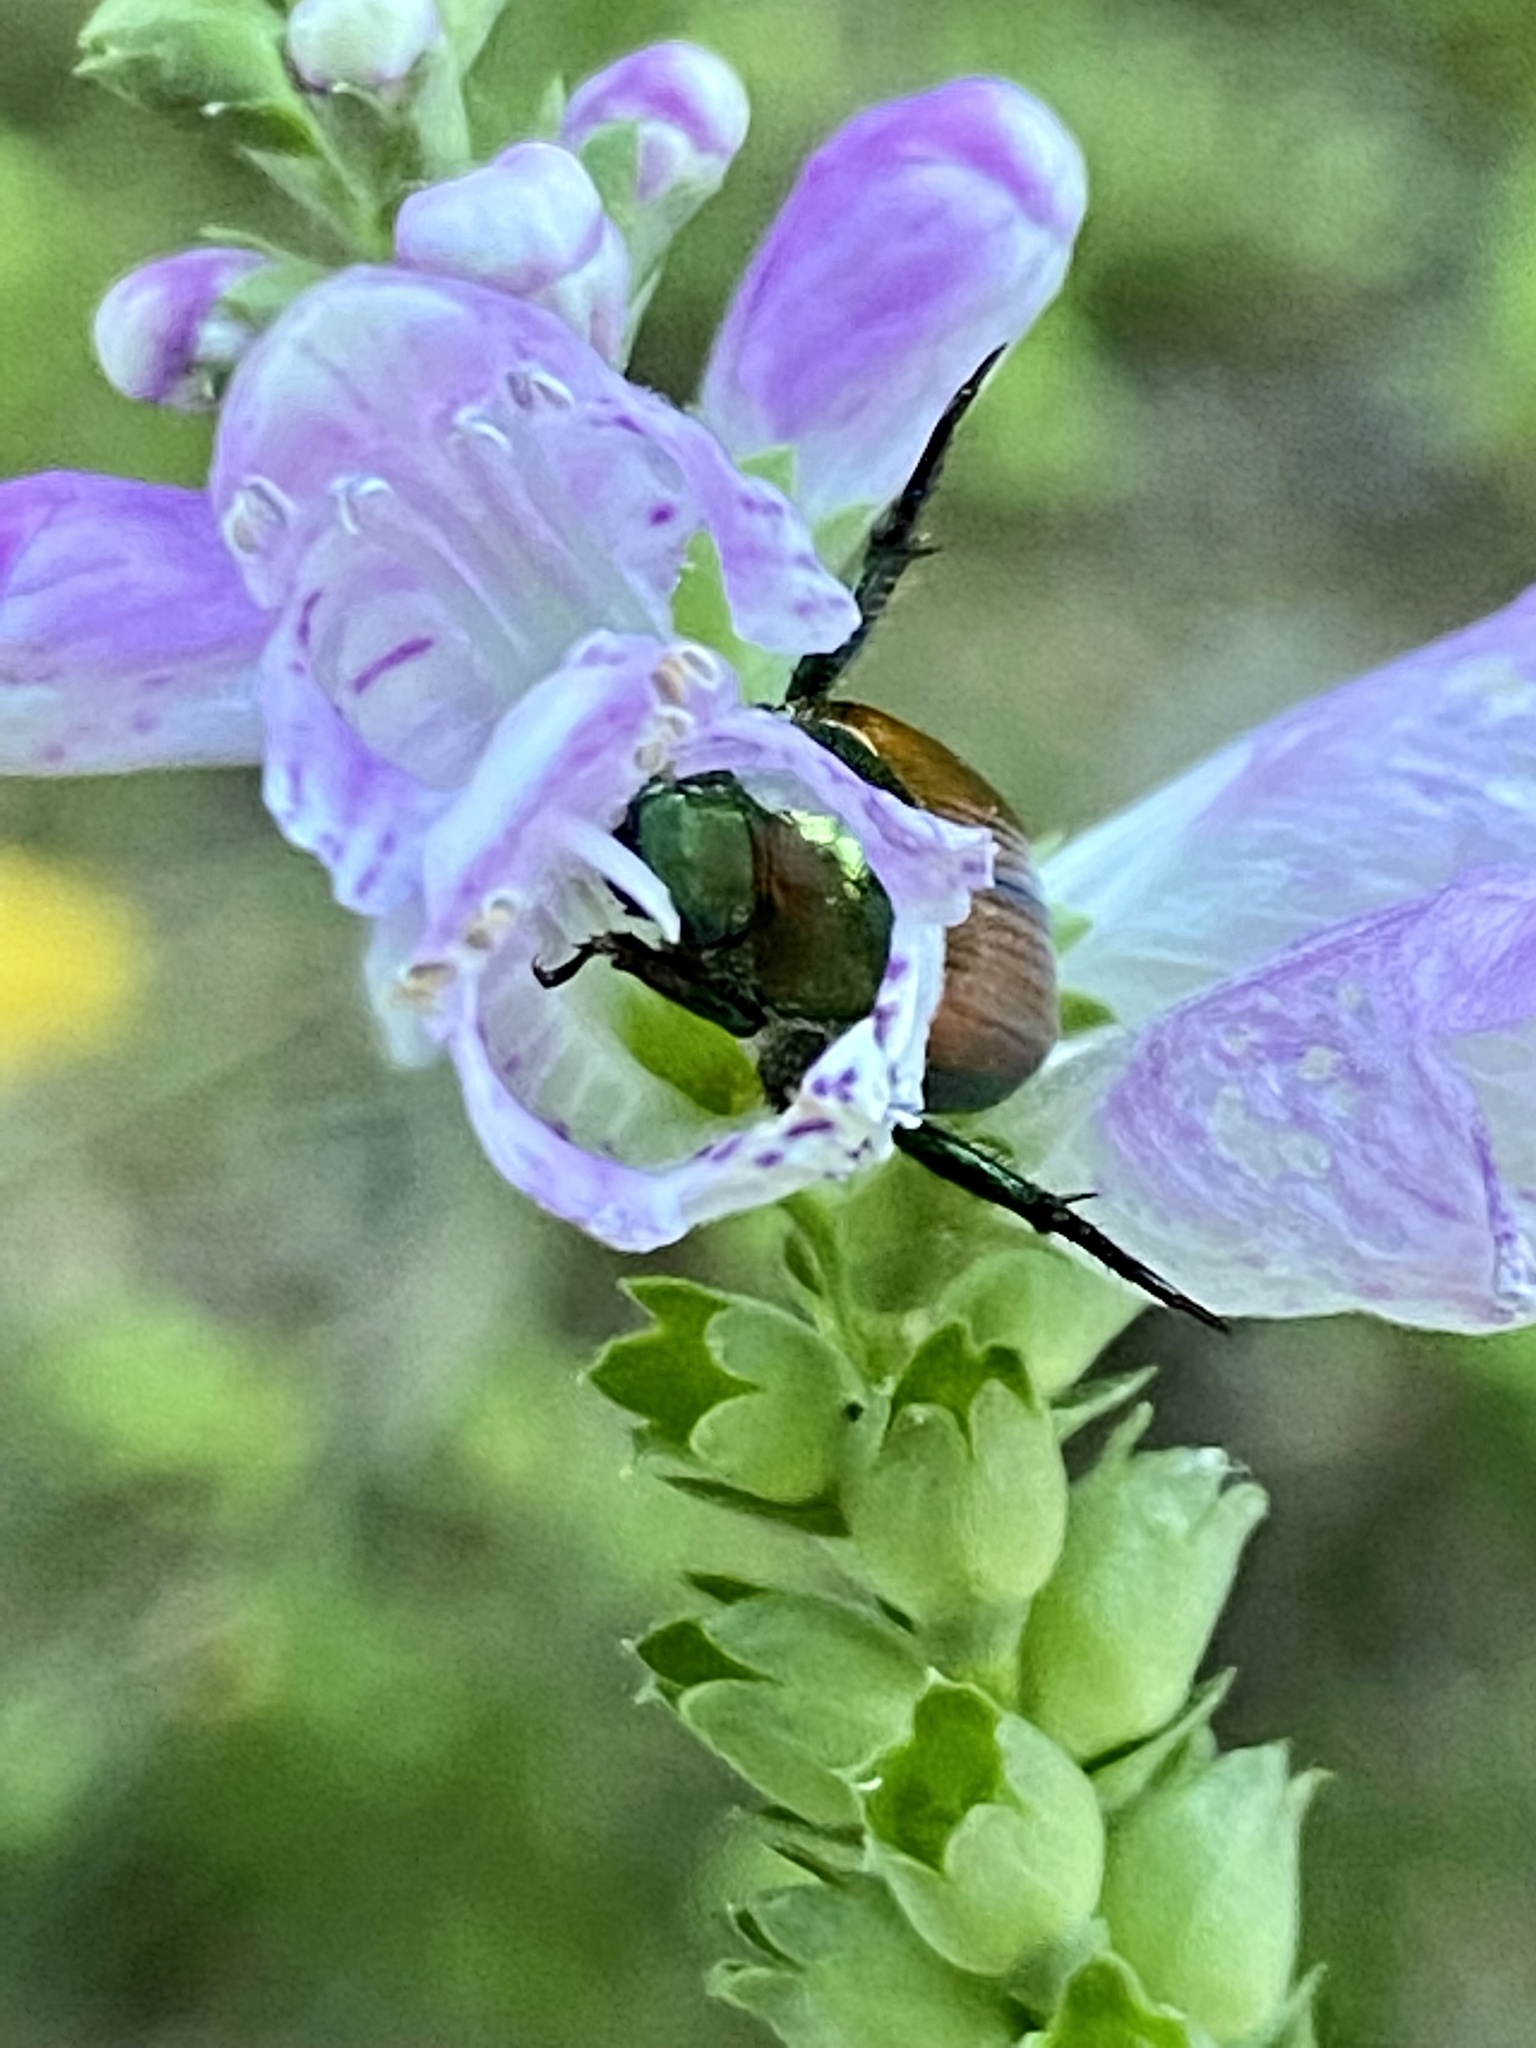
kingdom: Animalia
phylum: Arthropoda
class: Insecta
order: Coleoptera
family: Scarabaeidae
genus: Popillia
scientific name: Popillia japonica
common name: Japanese beetle
